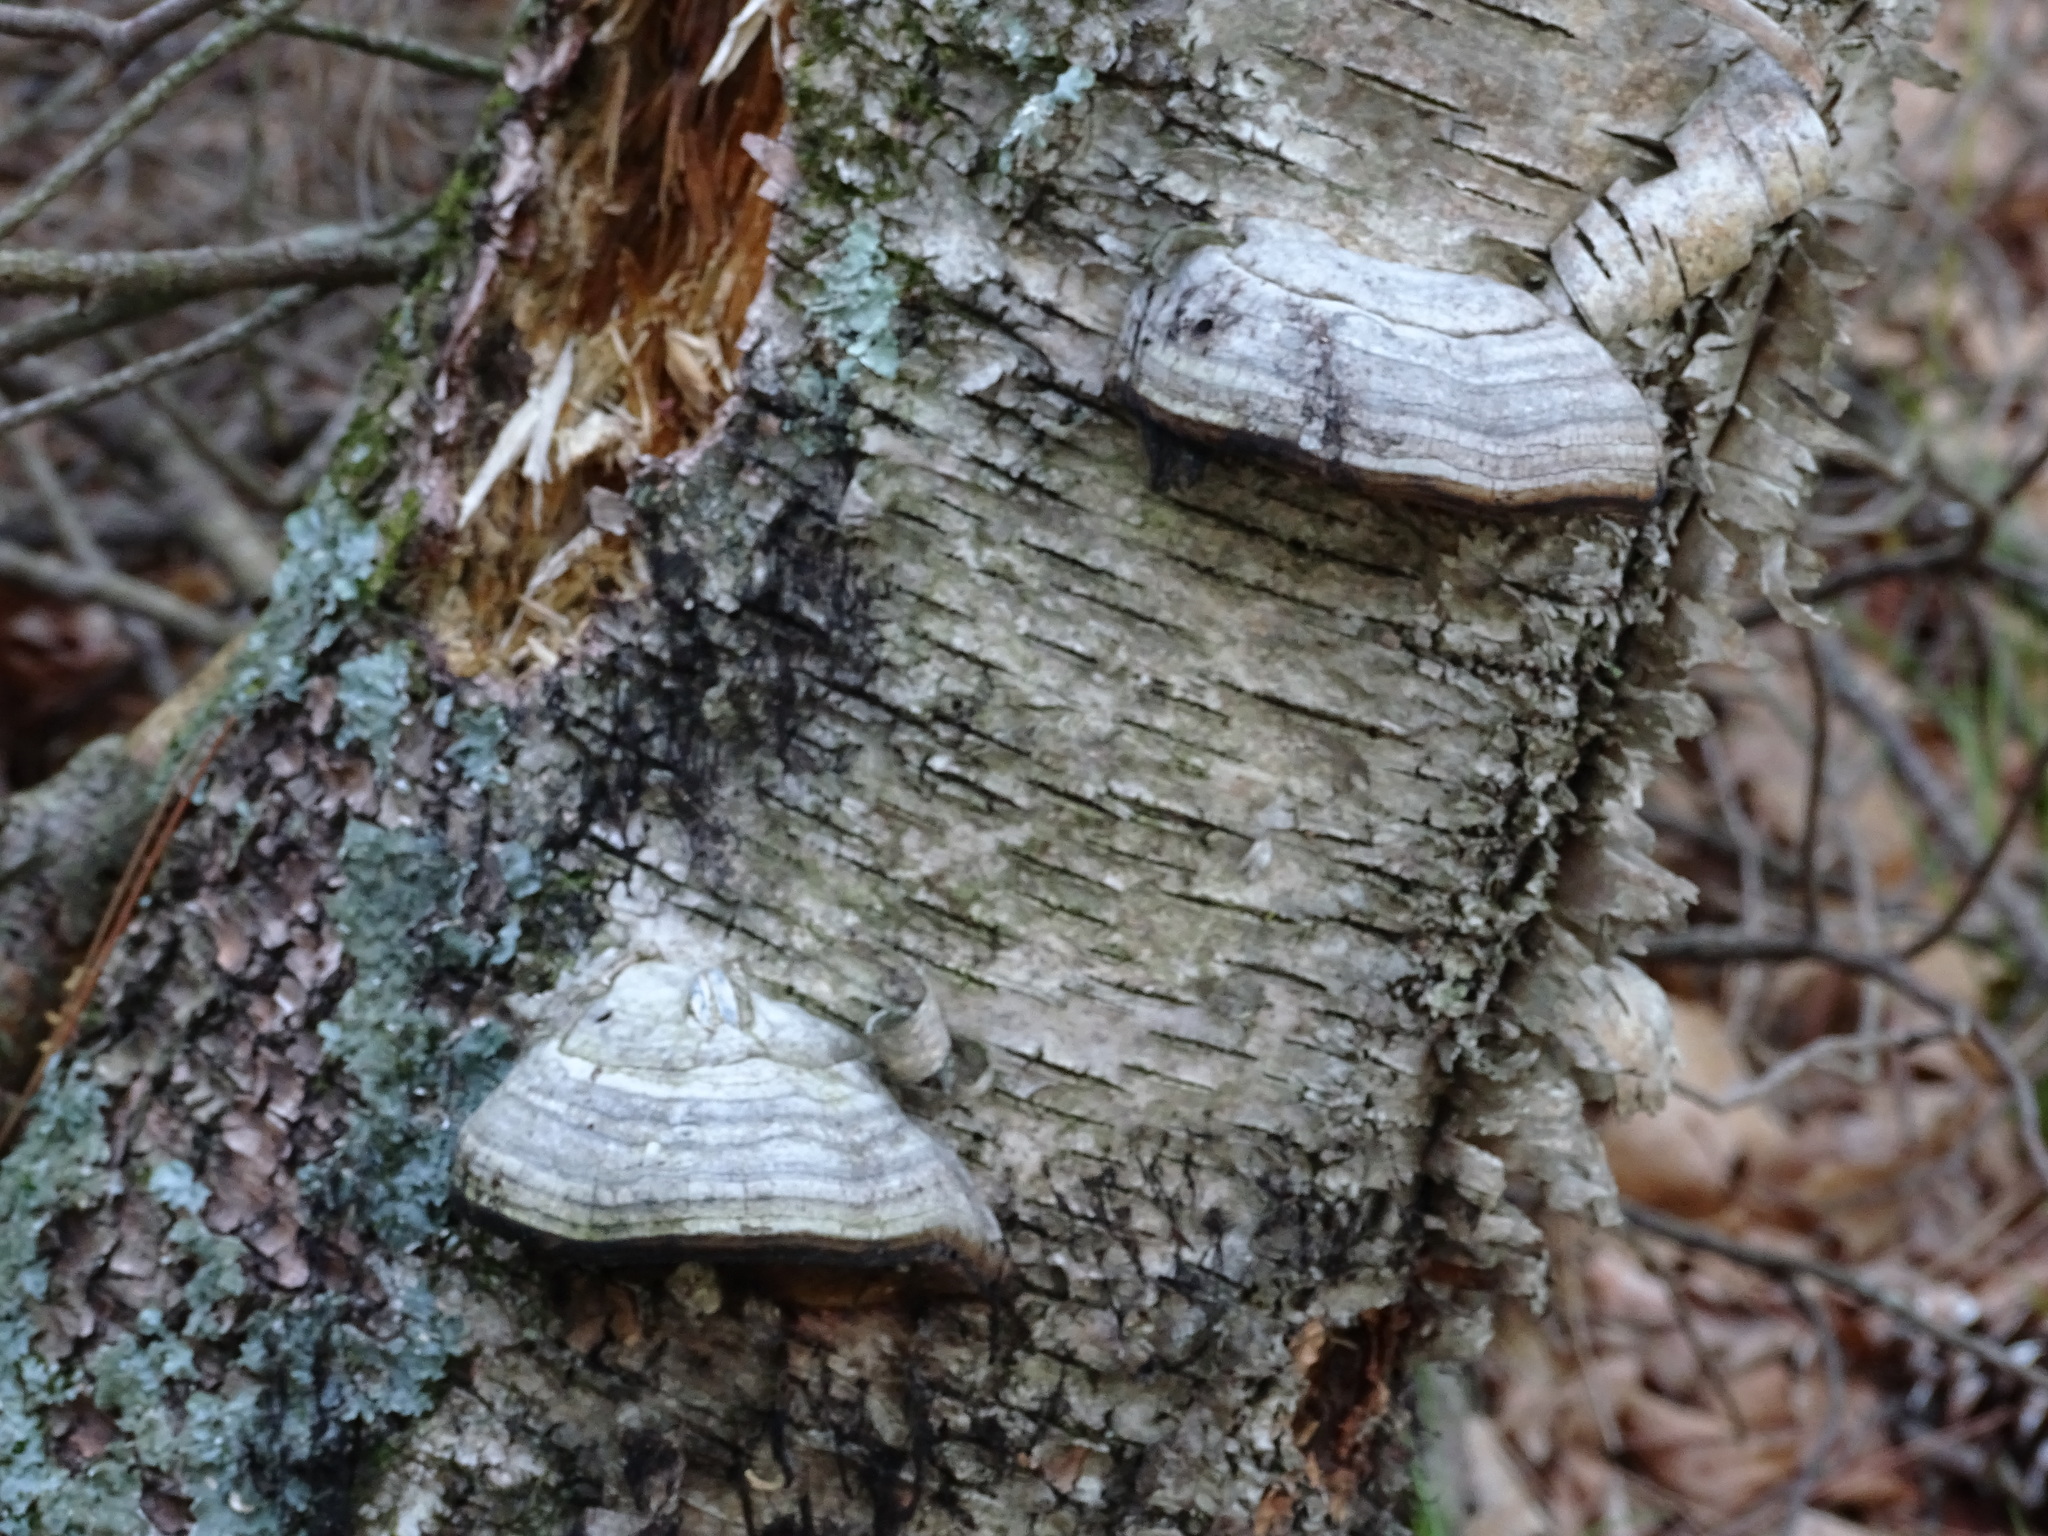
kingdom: Fungi
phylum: Basidiomycota
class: Agaricomycetes
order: Polyporales
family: Polyporaceae
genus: Fomes
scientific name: Fomes fomentarius
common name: Hoof fungus
